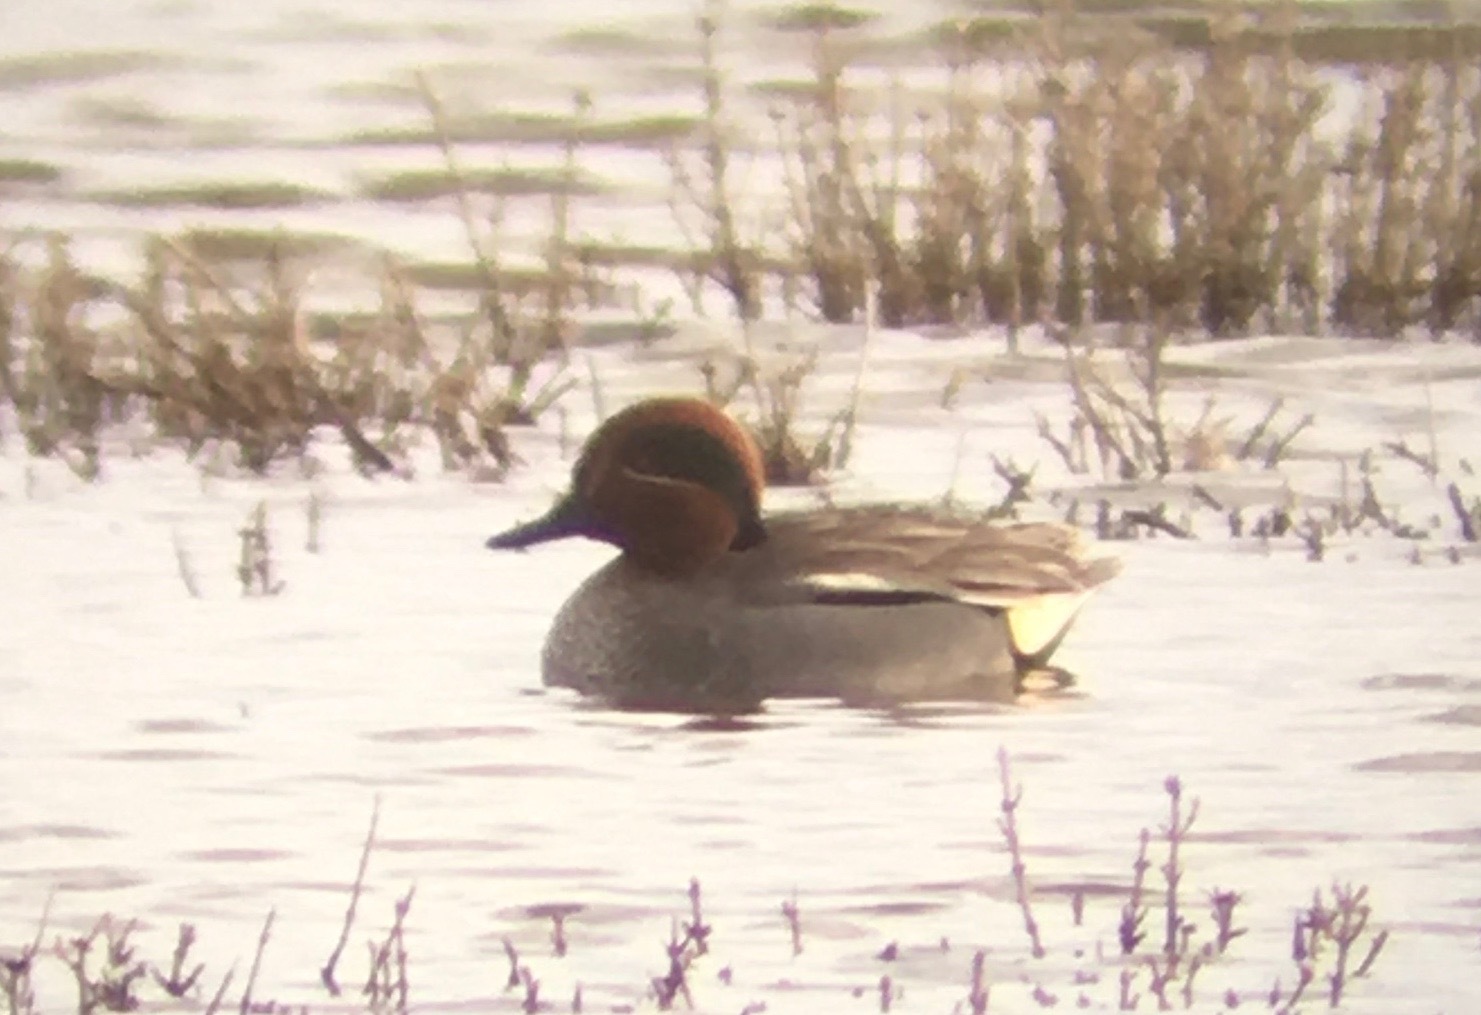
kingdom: Animalia
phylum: Chordata
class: Aves
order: Anseriformes
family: Anatidae
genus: Anas
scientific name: Anas crecca
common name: Eurasian teal
